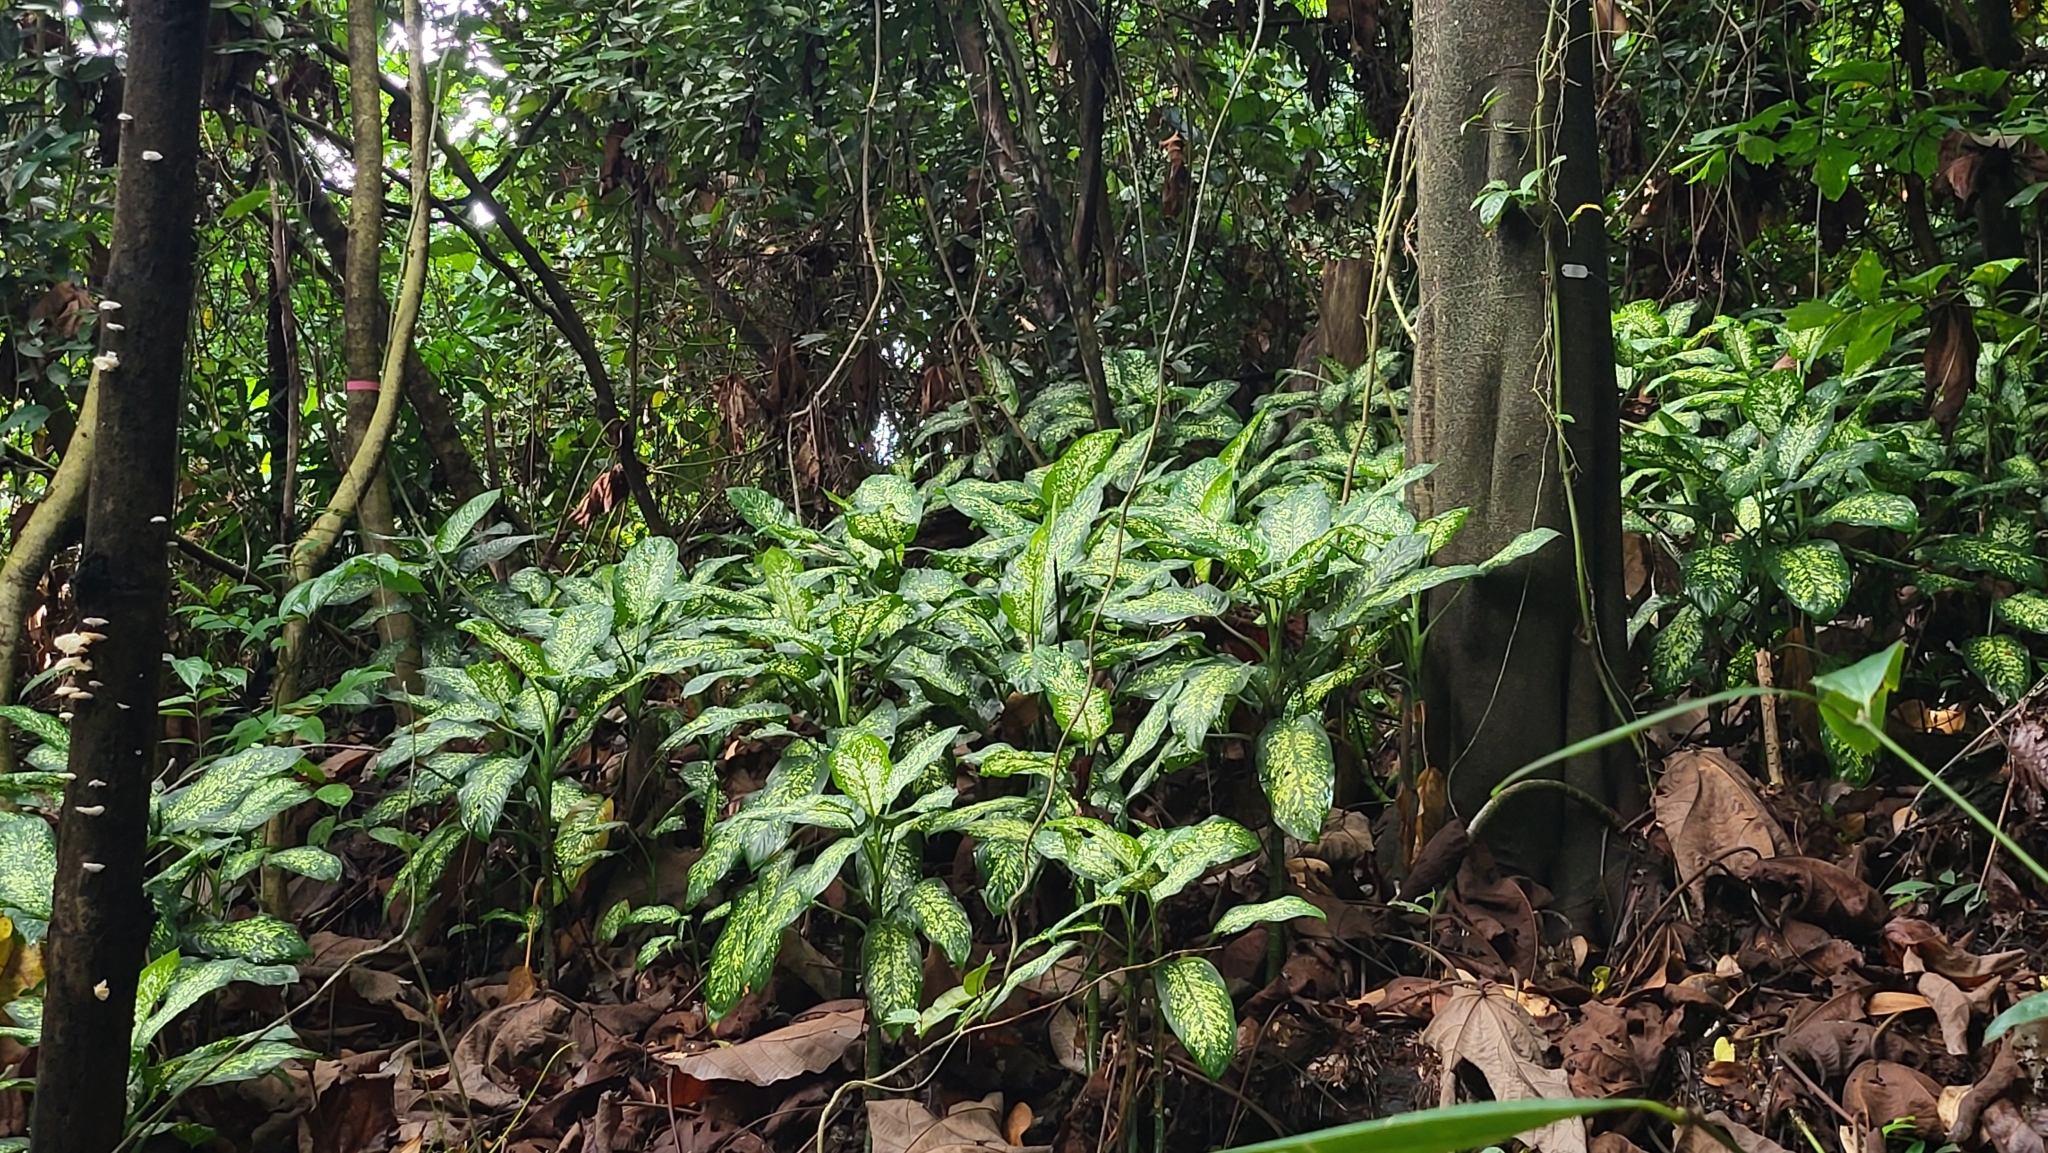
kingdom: Plantae
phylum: Tracheophyta
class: Liliopsida
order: Alismatales
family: Araceae
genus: Dieffenbachia
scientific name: Dieffenbachia seguine
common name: Dumbcane
